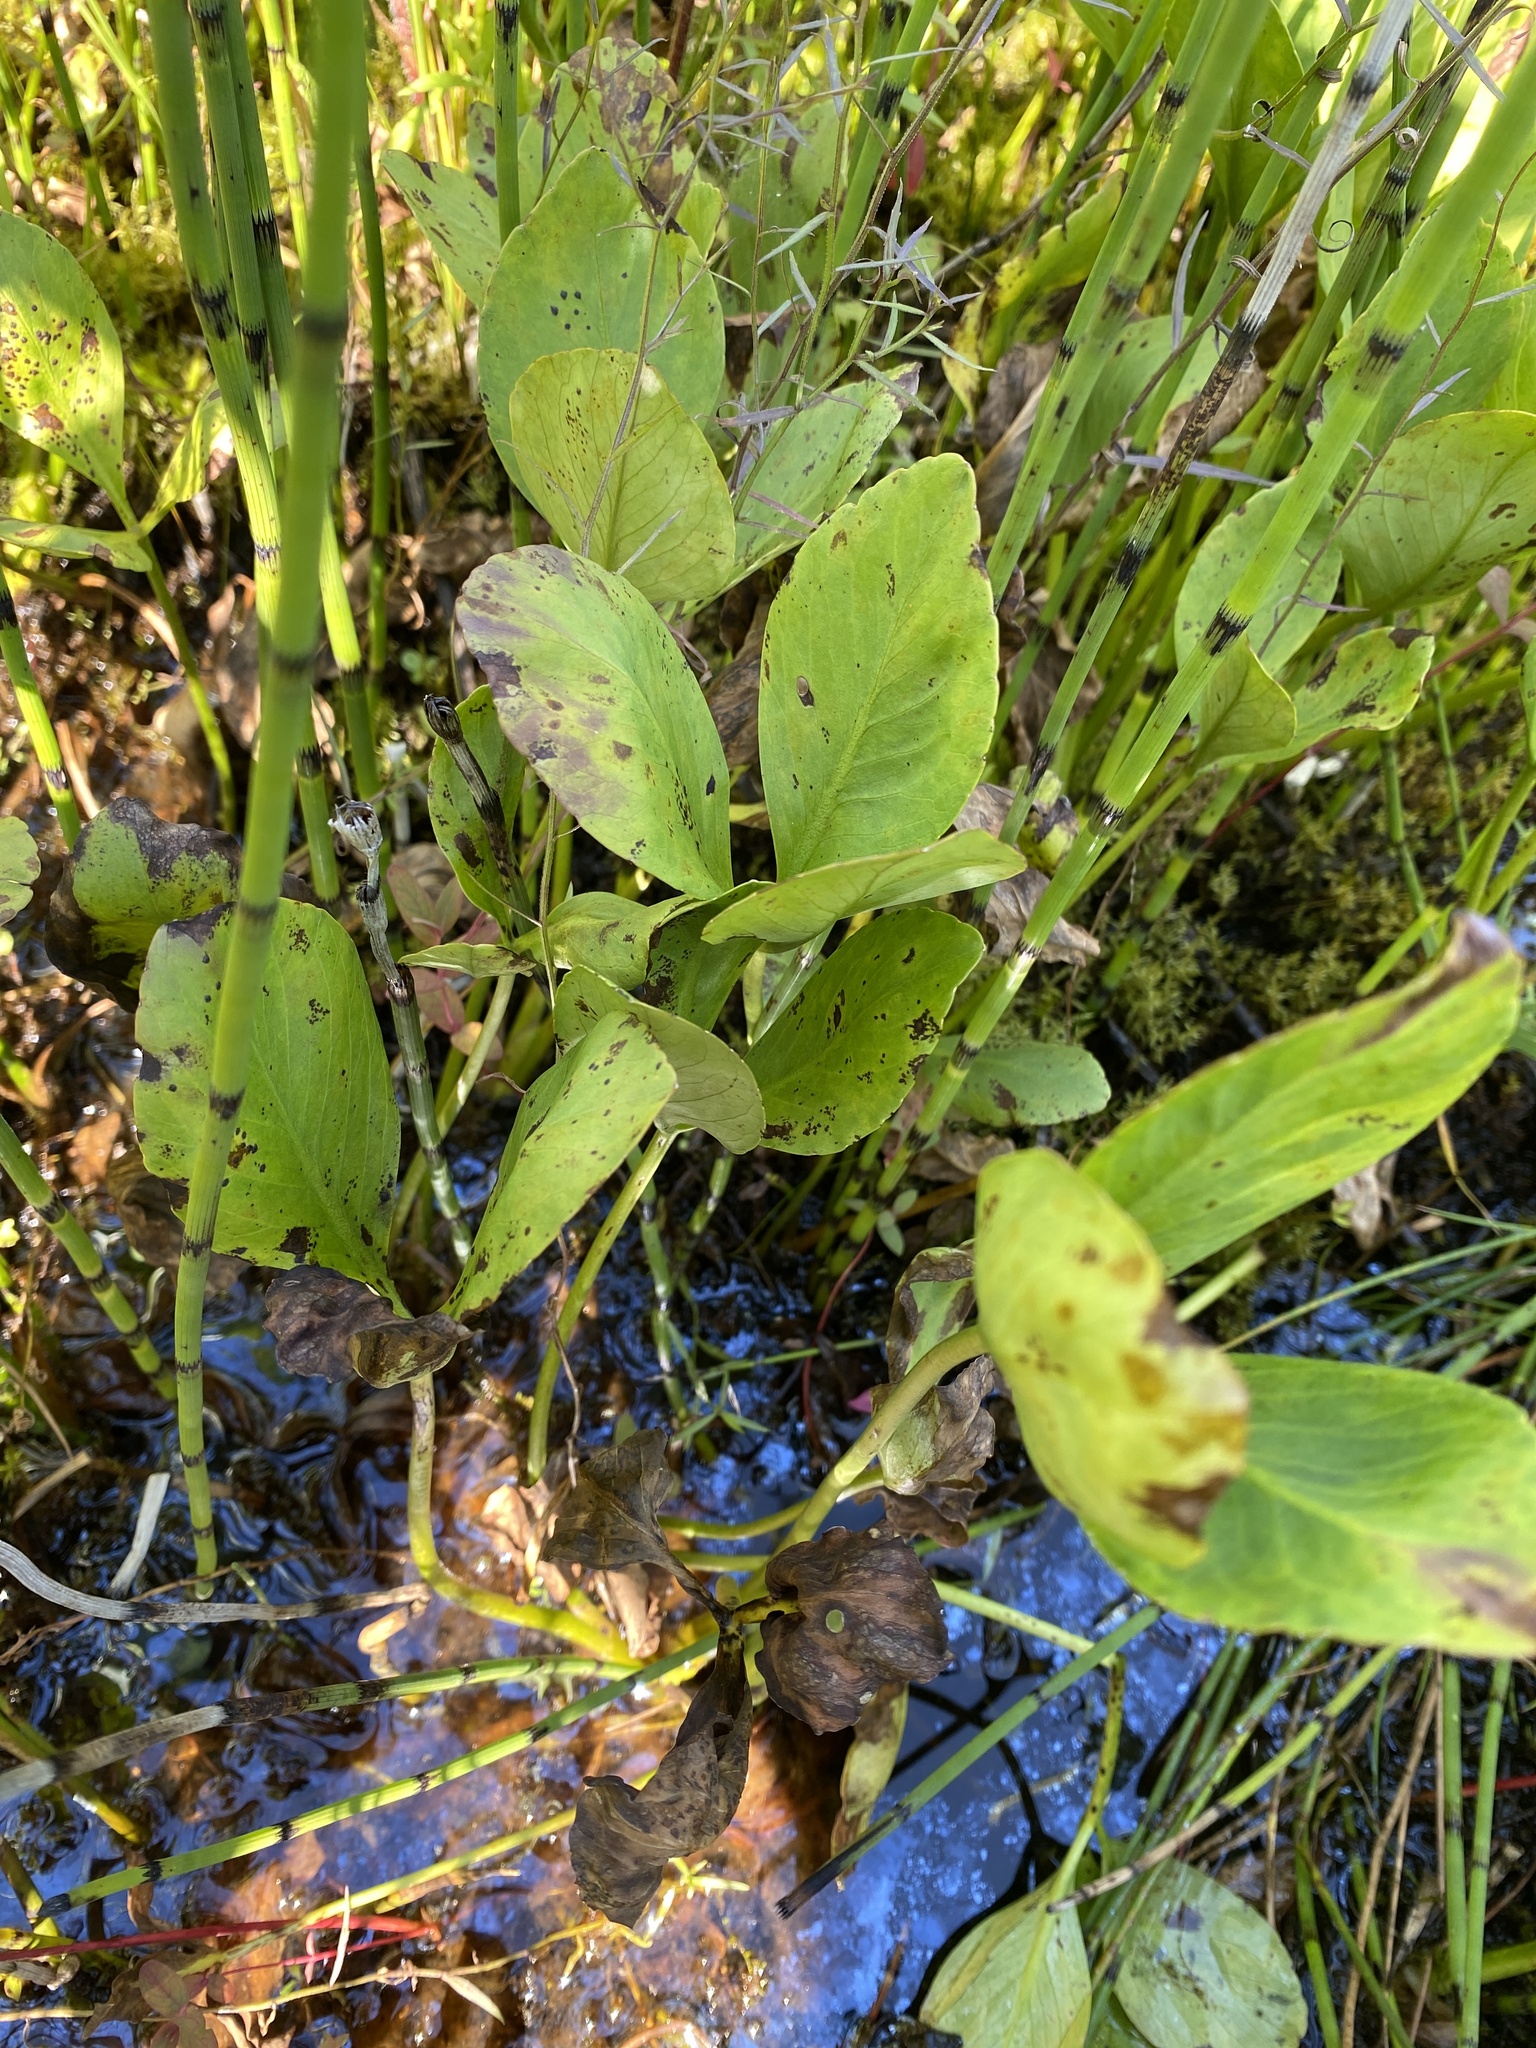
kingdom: Plantae
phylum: Tracheophyta
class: Magnoliopsida
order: Asterales
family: Menyanthaceae
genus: Menyanthes
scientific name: Menyanthes trifoliata
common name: Bogbean
